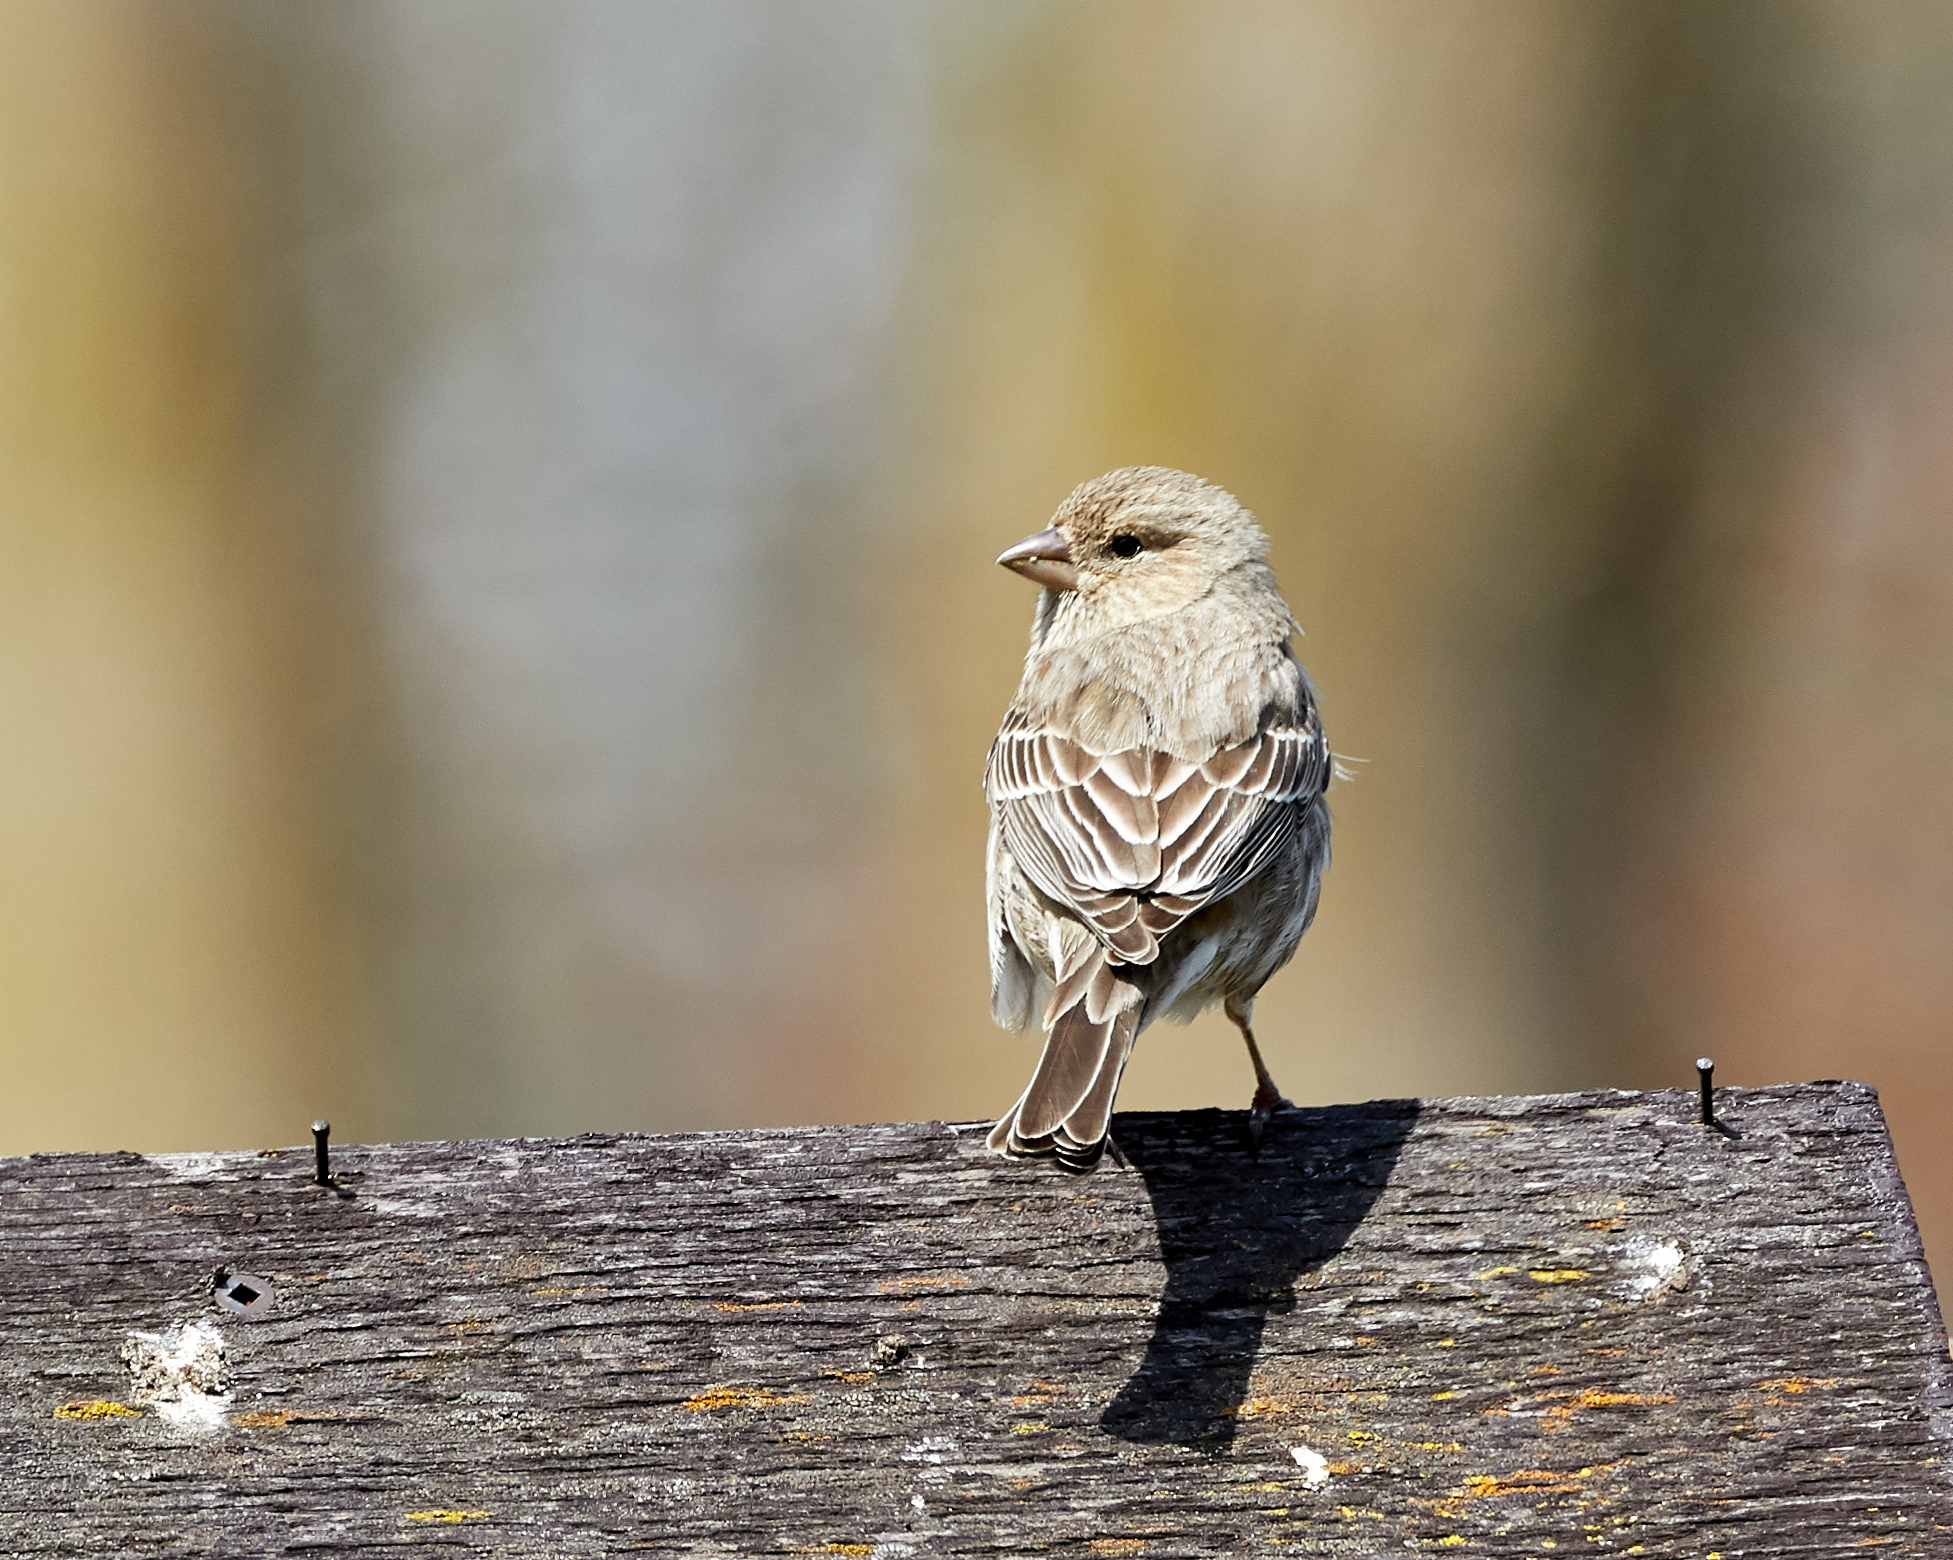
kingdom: Animalia
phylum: Chordata
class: Aves
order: Passeriformes
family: Fringillidae
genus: Haemorhous
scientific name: Haemorhous mexicanus
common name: House finch
